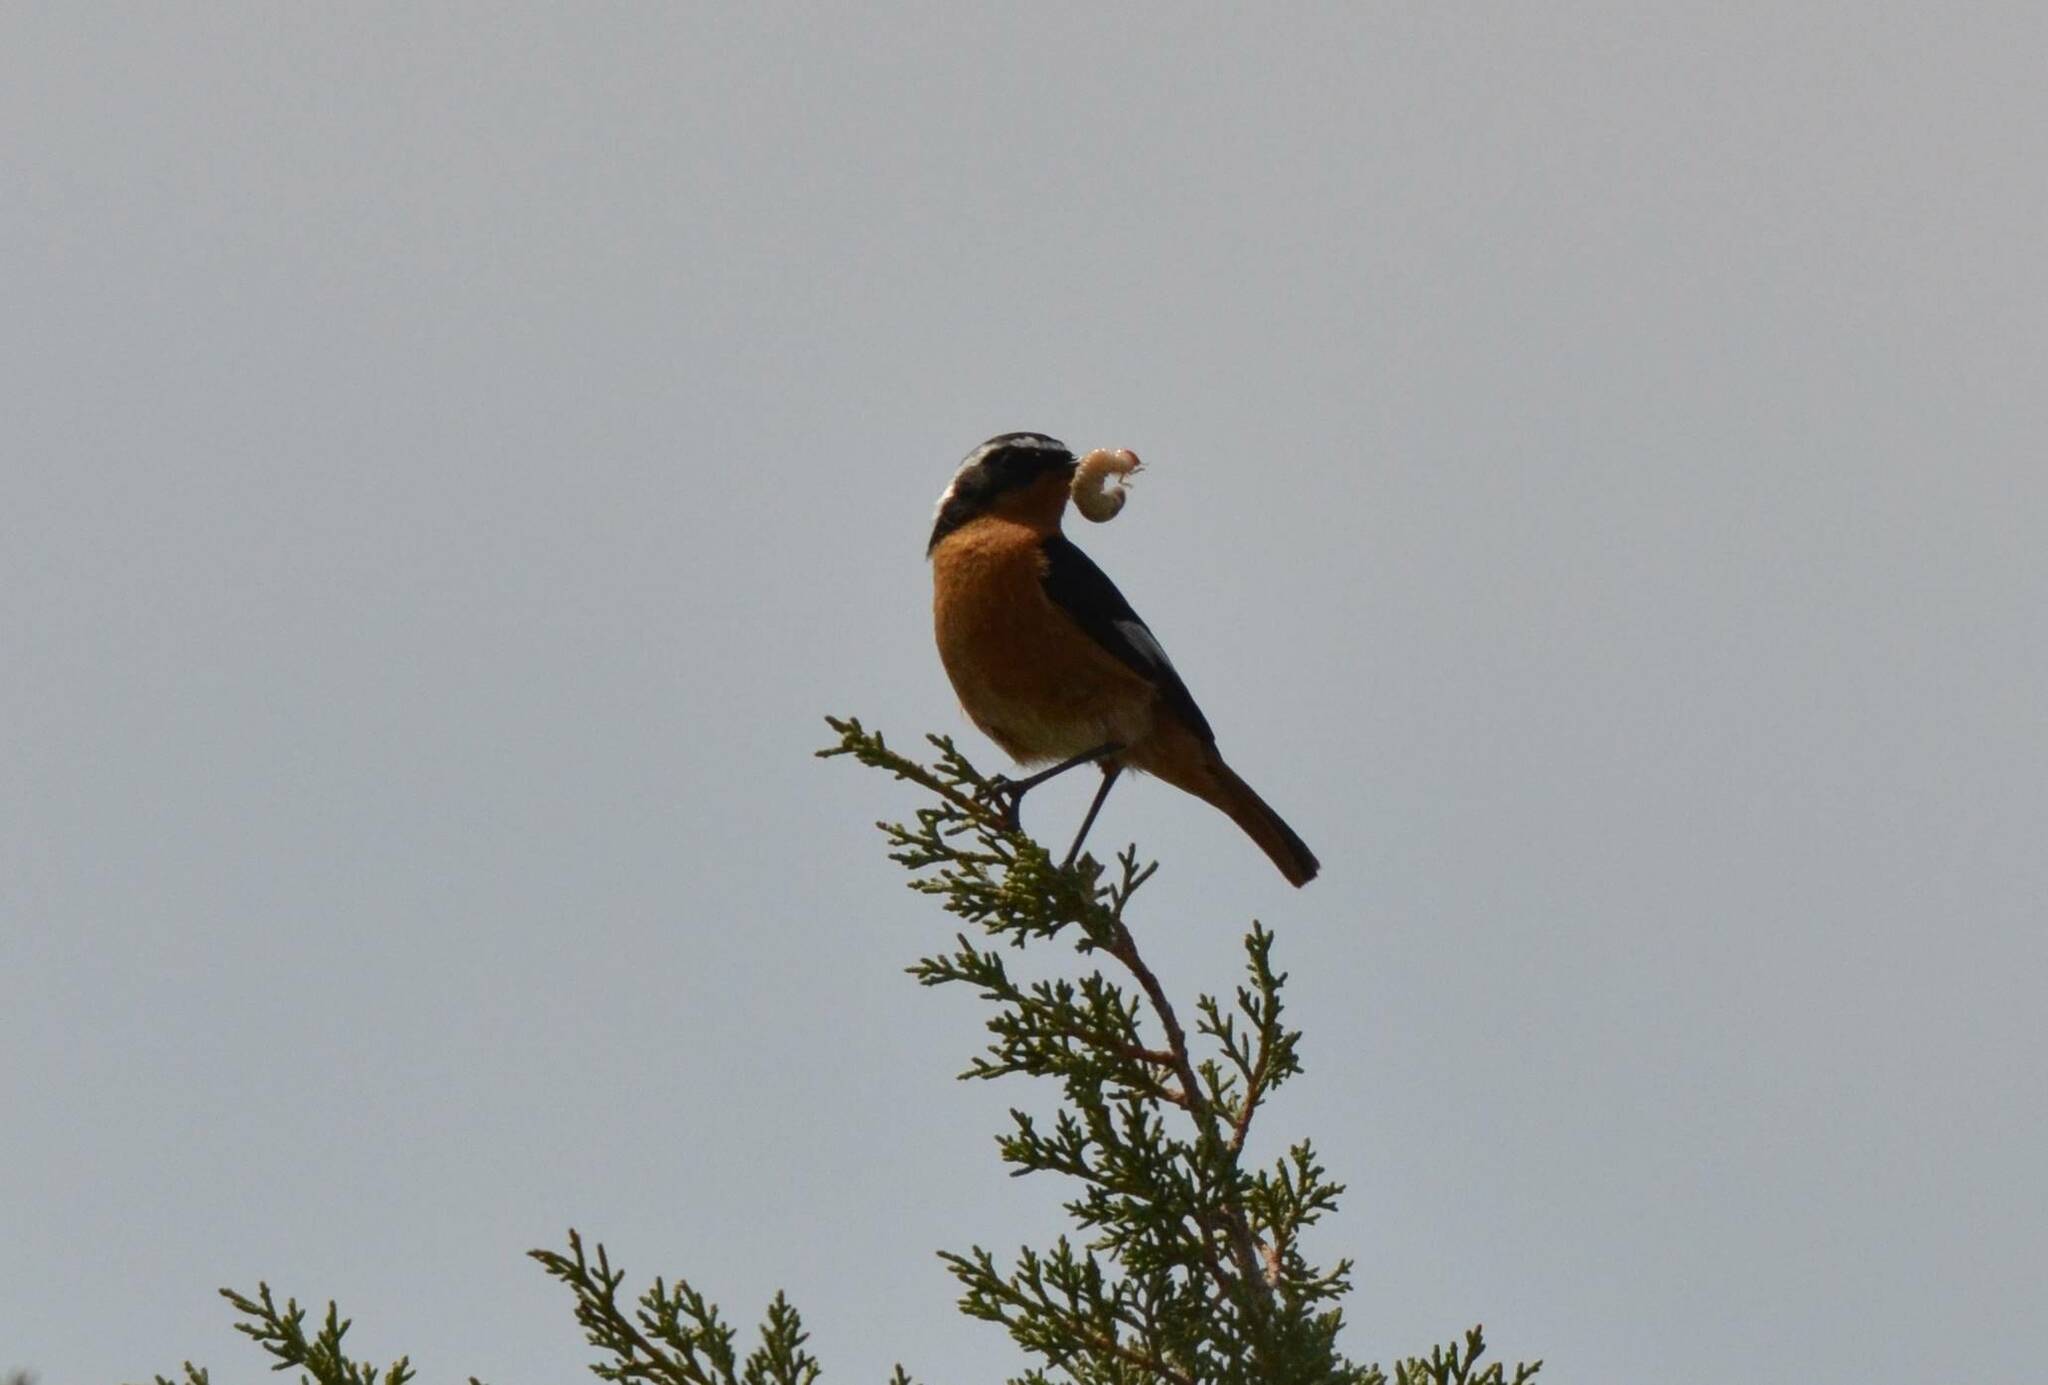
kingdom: Animalia
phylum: Chordata
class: Aves
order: Passeriformes
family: Muscicapidae
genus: Phoenicurus
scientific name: Phoenicurus moussieri
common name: Moussier's redstart
